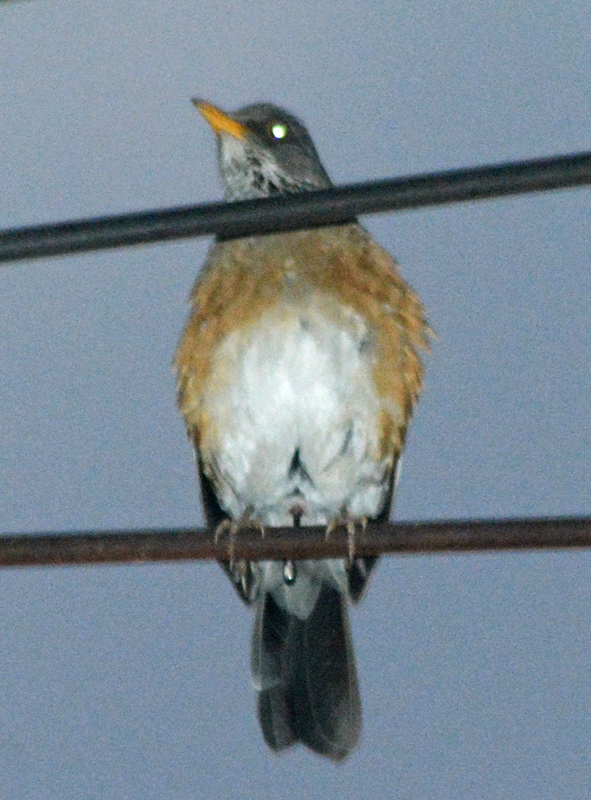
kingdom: Animalia
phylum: Chordata
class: Aves
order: Passeriformes
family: Turdidae
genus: Turdus
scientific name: Turdus rufopalliatus
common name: Rufous-backed robin
